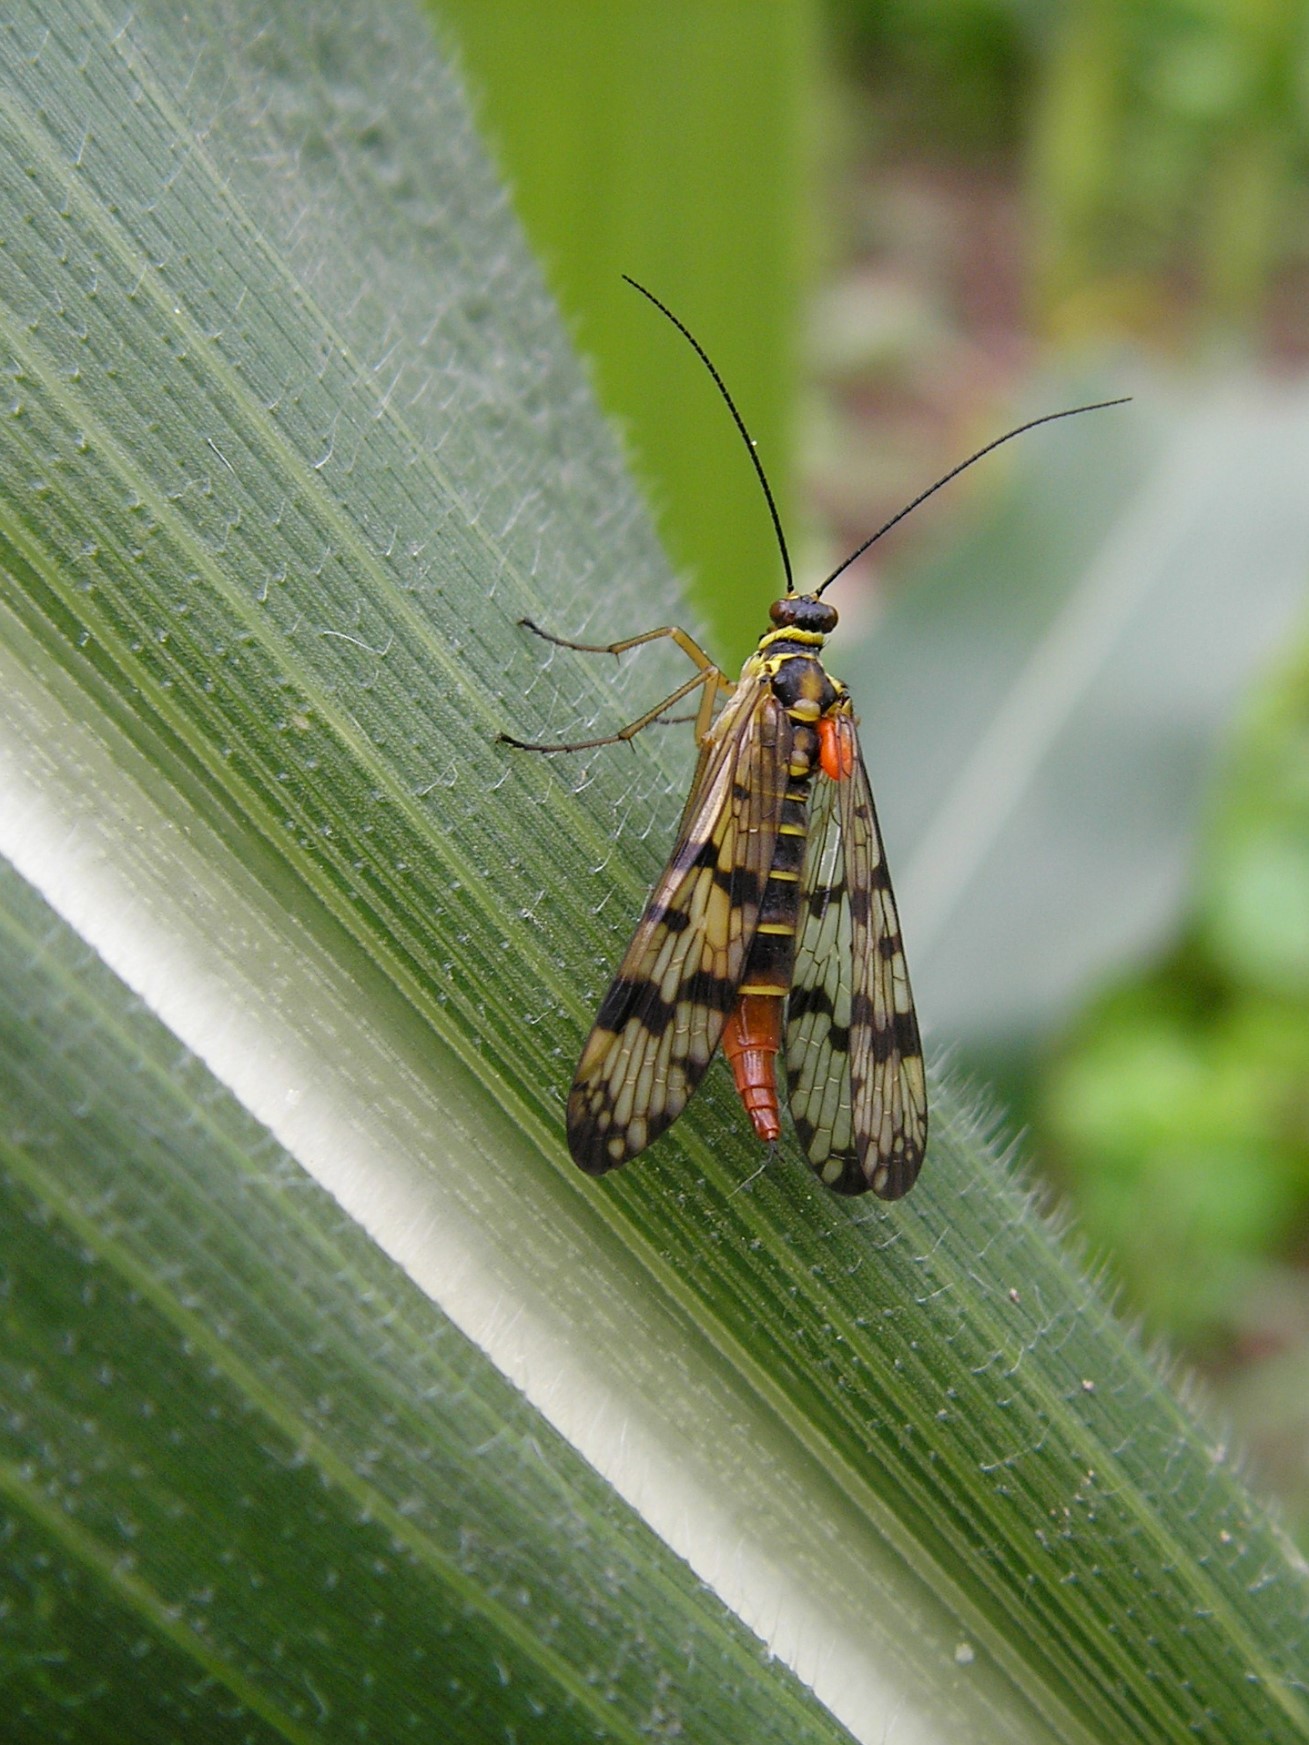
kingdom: Animalia
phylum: Arthropoda
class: Insecta
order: Mecoptera
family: Panorpidae
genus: Panorpa
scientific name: Panorpa communis
